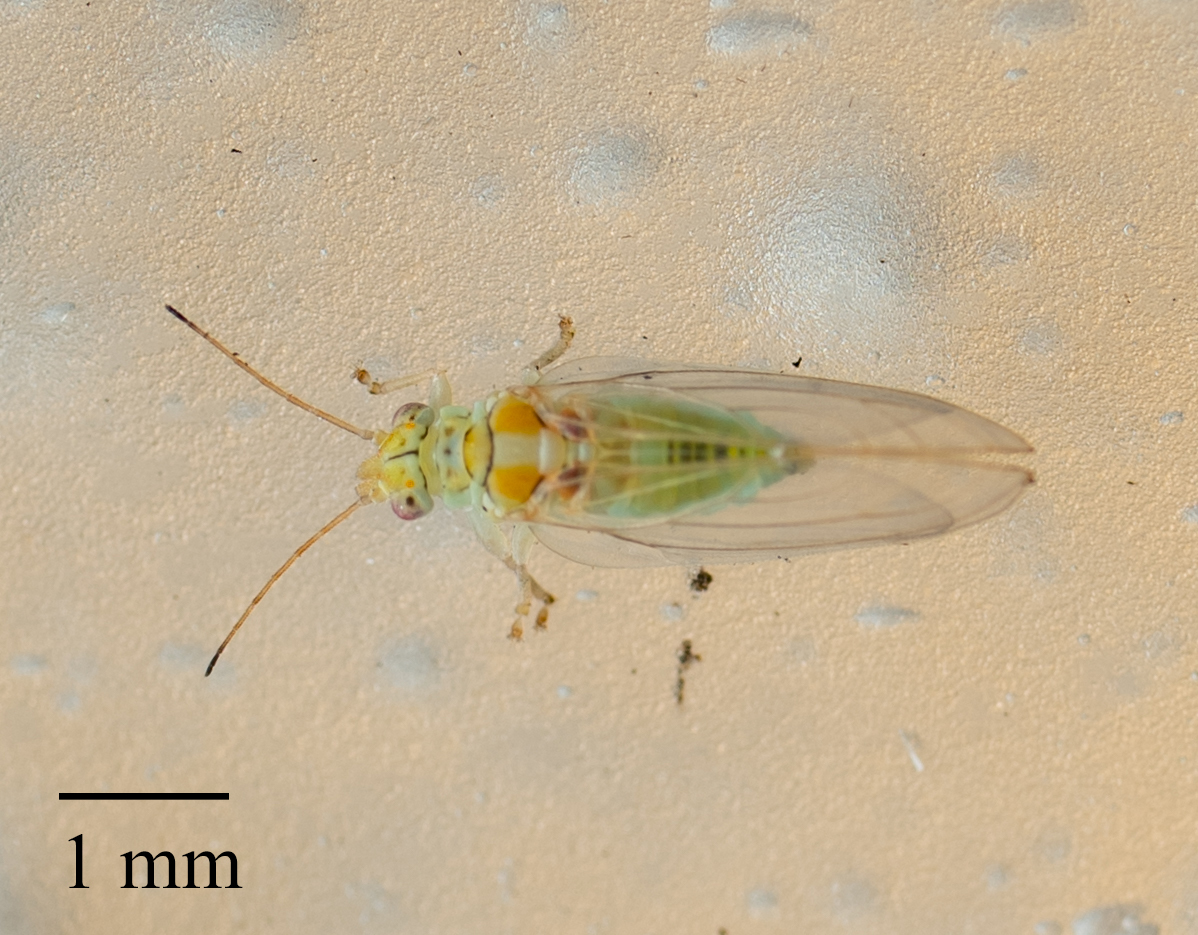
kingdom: Animalia
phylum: Arthropoda
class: Insecta
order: Hemiptera
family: Aphalaridae
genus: Glycaspis
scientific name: Glycaspis brimblecombei
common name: Red gum lerp psyllid
